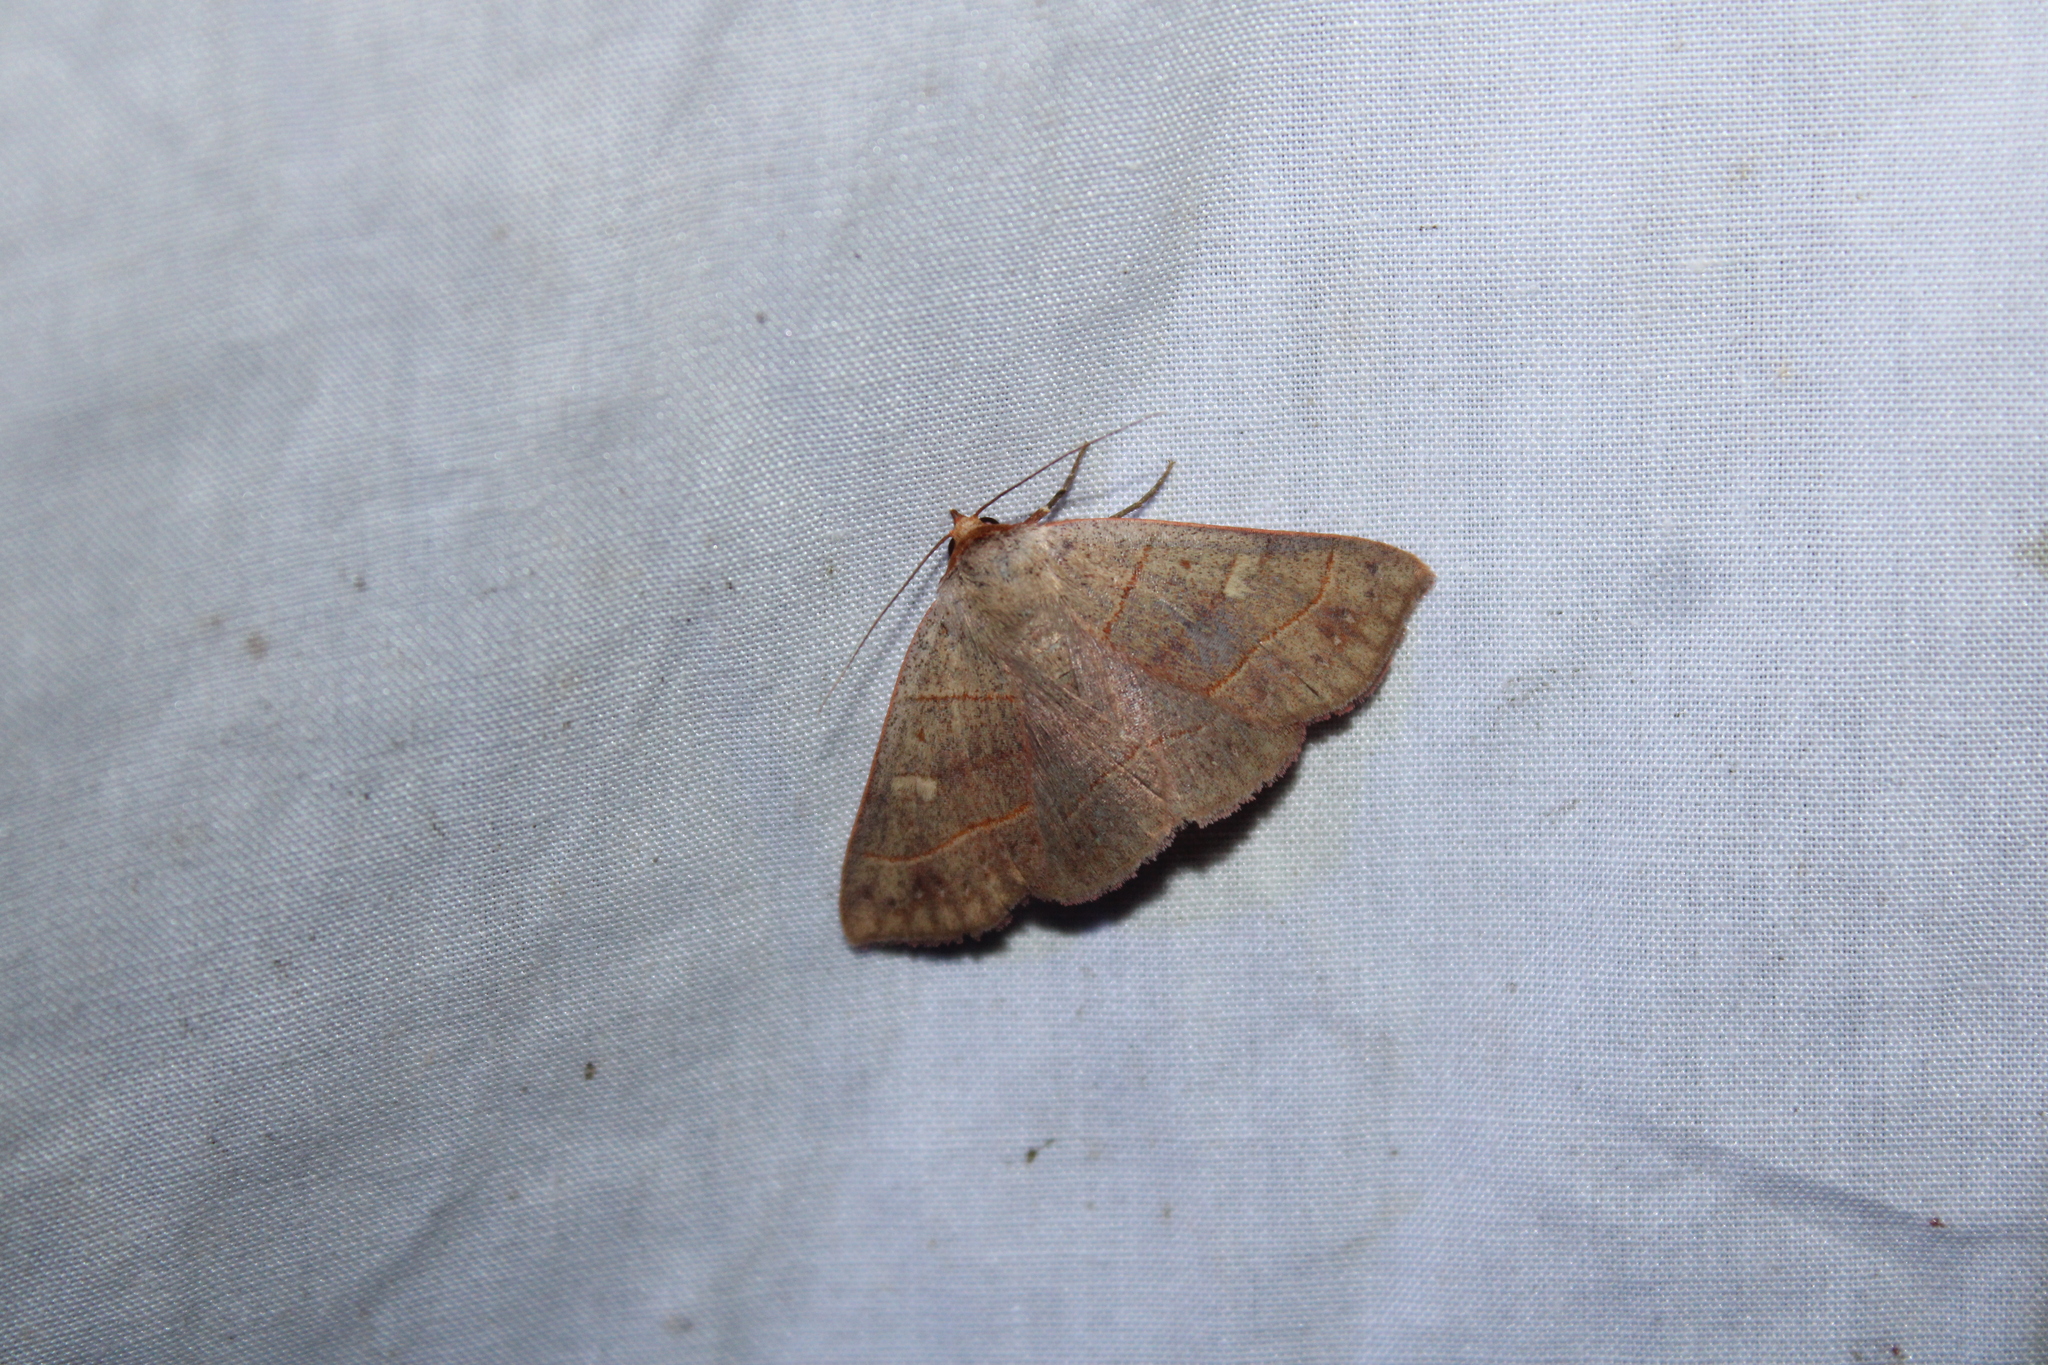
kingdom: Animalia
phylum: Arthropoda
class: Insecta
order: Lepidoptera
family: Erebidae
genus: Panopoda
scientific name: Panopoda rufimargo
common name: Red-lined panopoda moth
